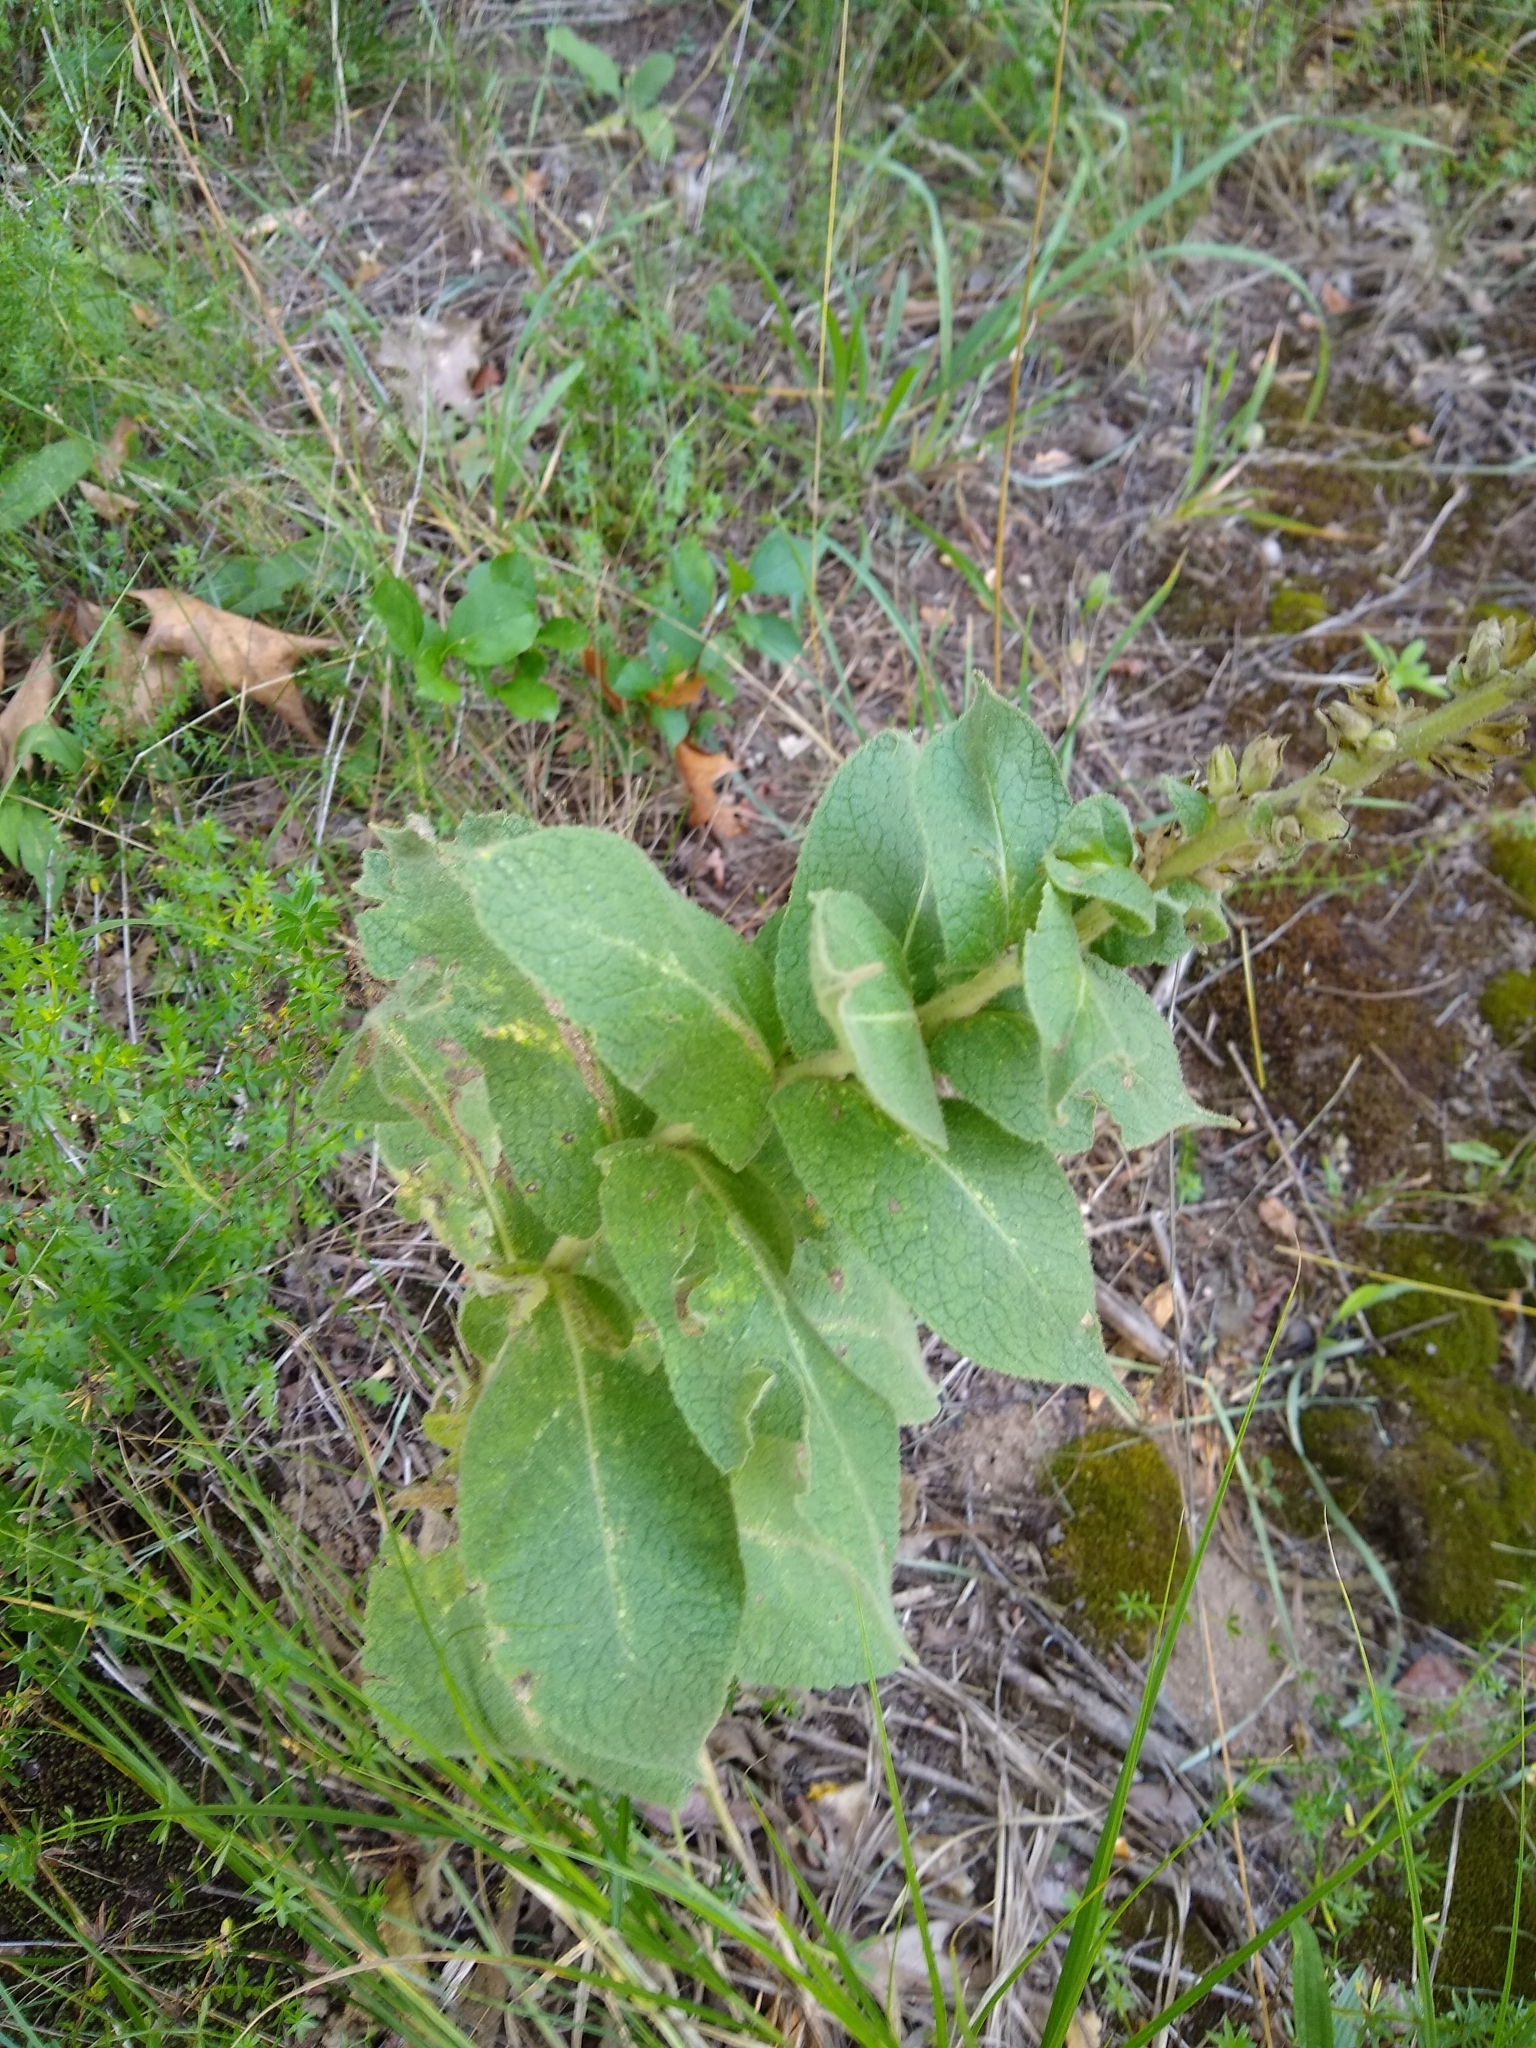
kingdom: Plantae
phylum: Tracheophyta
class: Magnoliopsida
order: Lamiales
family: Scrophulariaceae
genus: Verbascum
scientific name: Verbascum phlomoides
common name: Orange mullein
